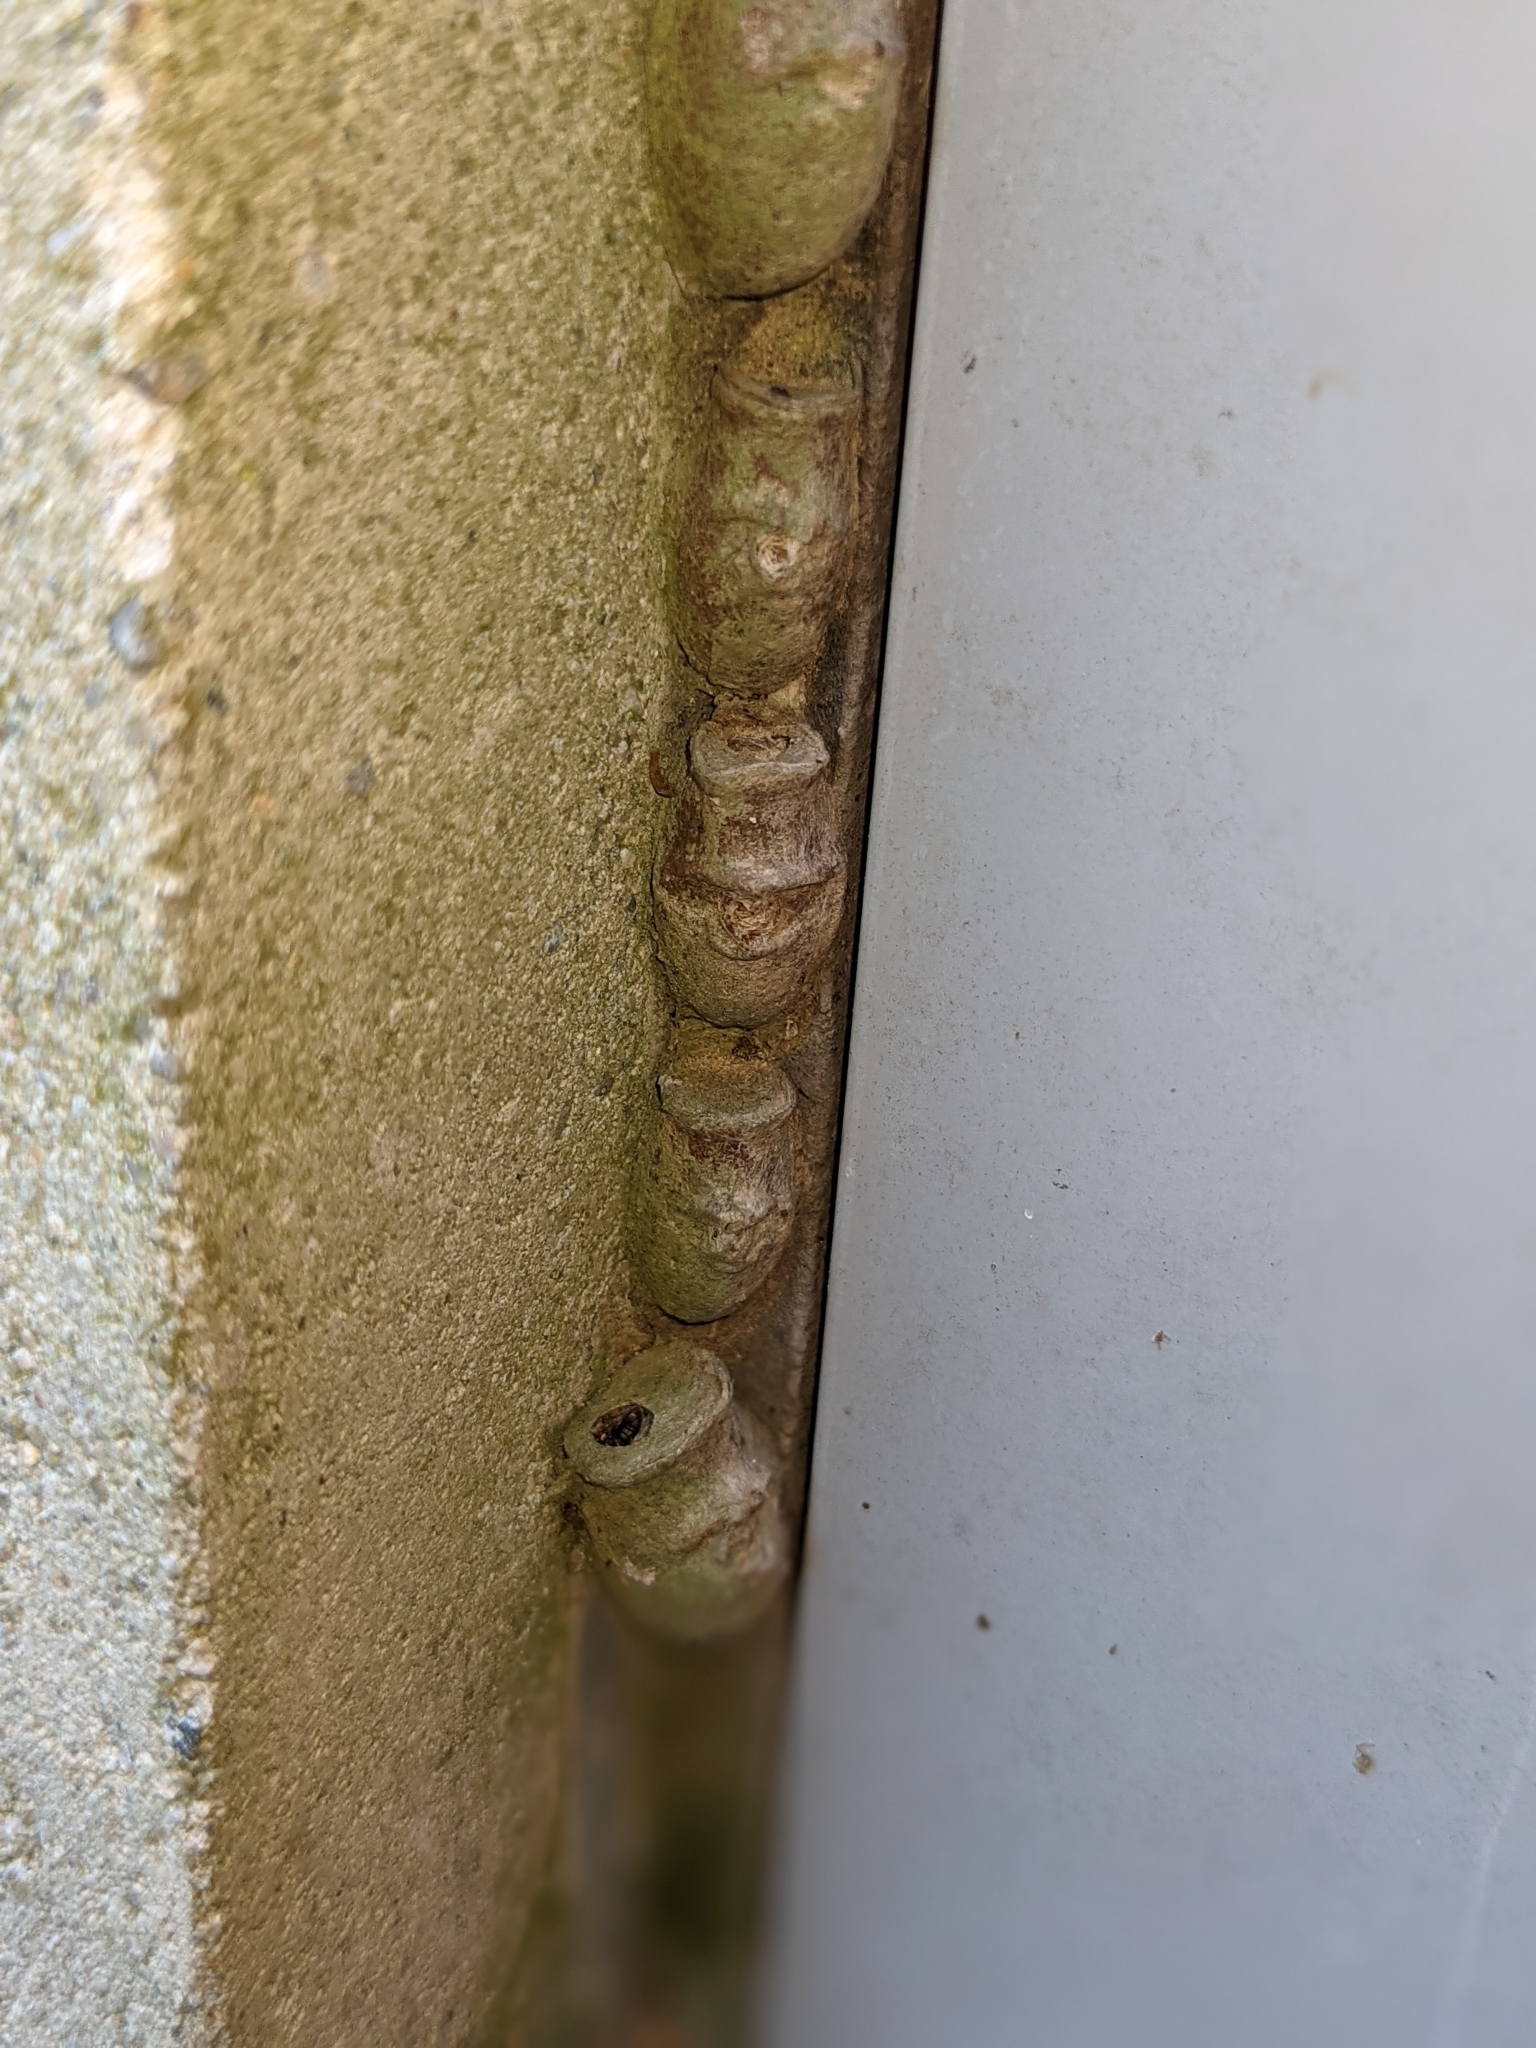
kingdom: Animalia
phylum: Arthropoda
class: Insecta
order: Lepidoptera
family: Megalopygidae
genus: Megalopyge
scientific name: Megalopyge
